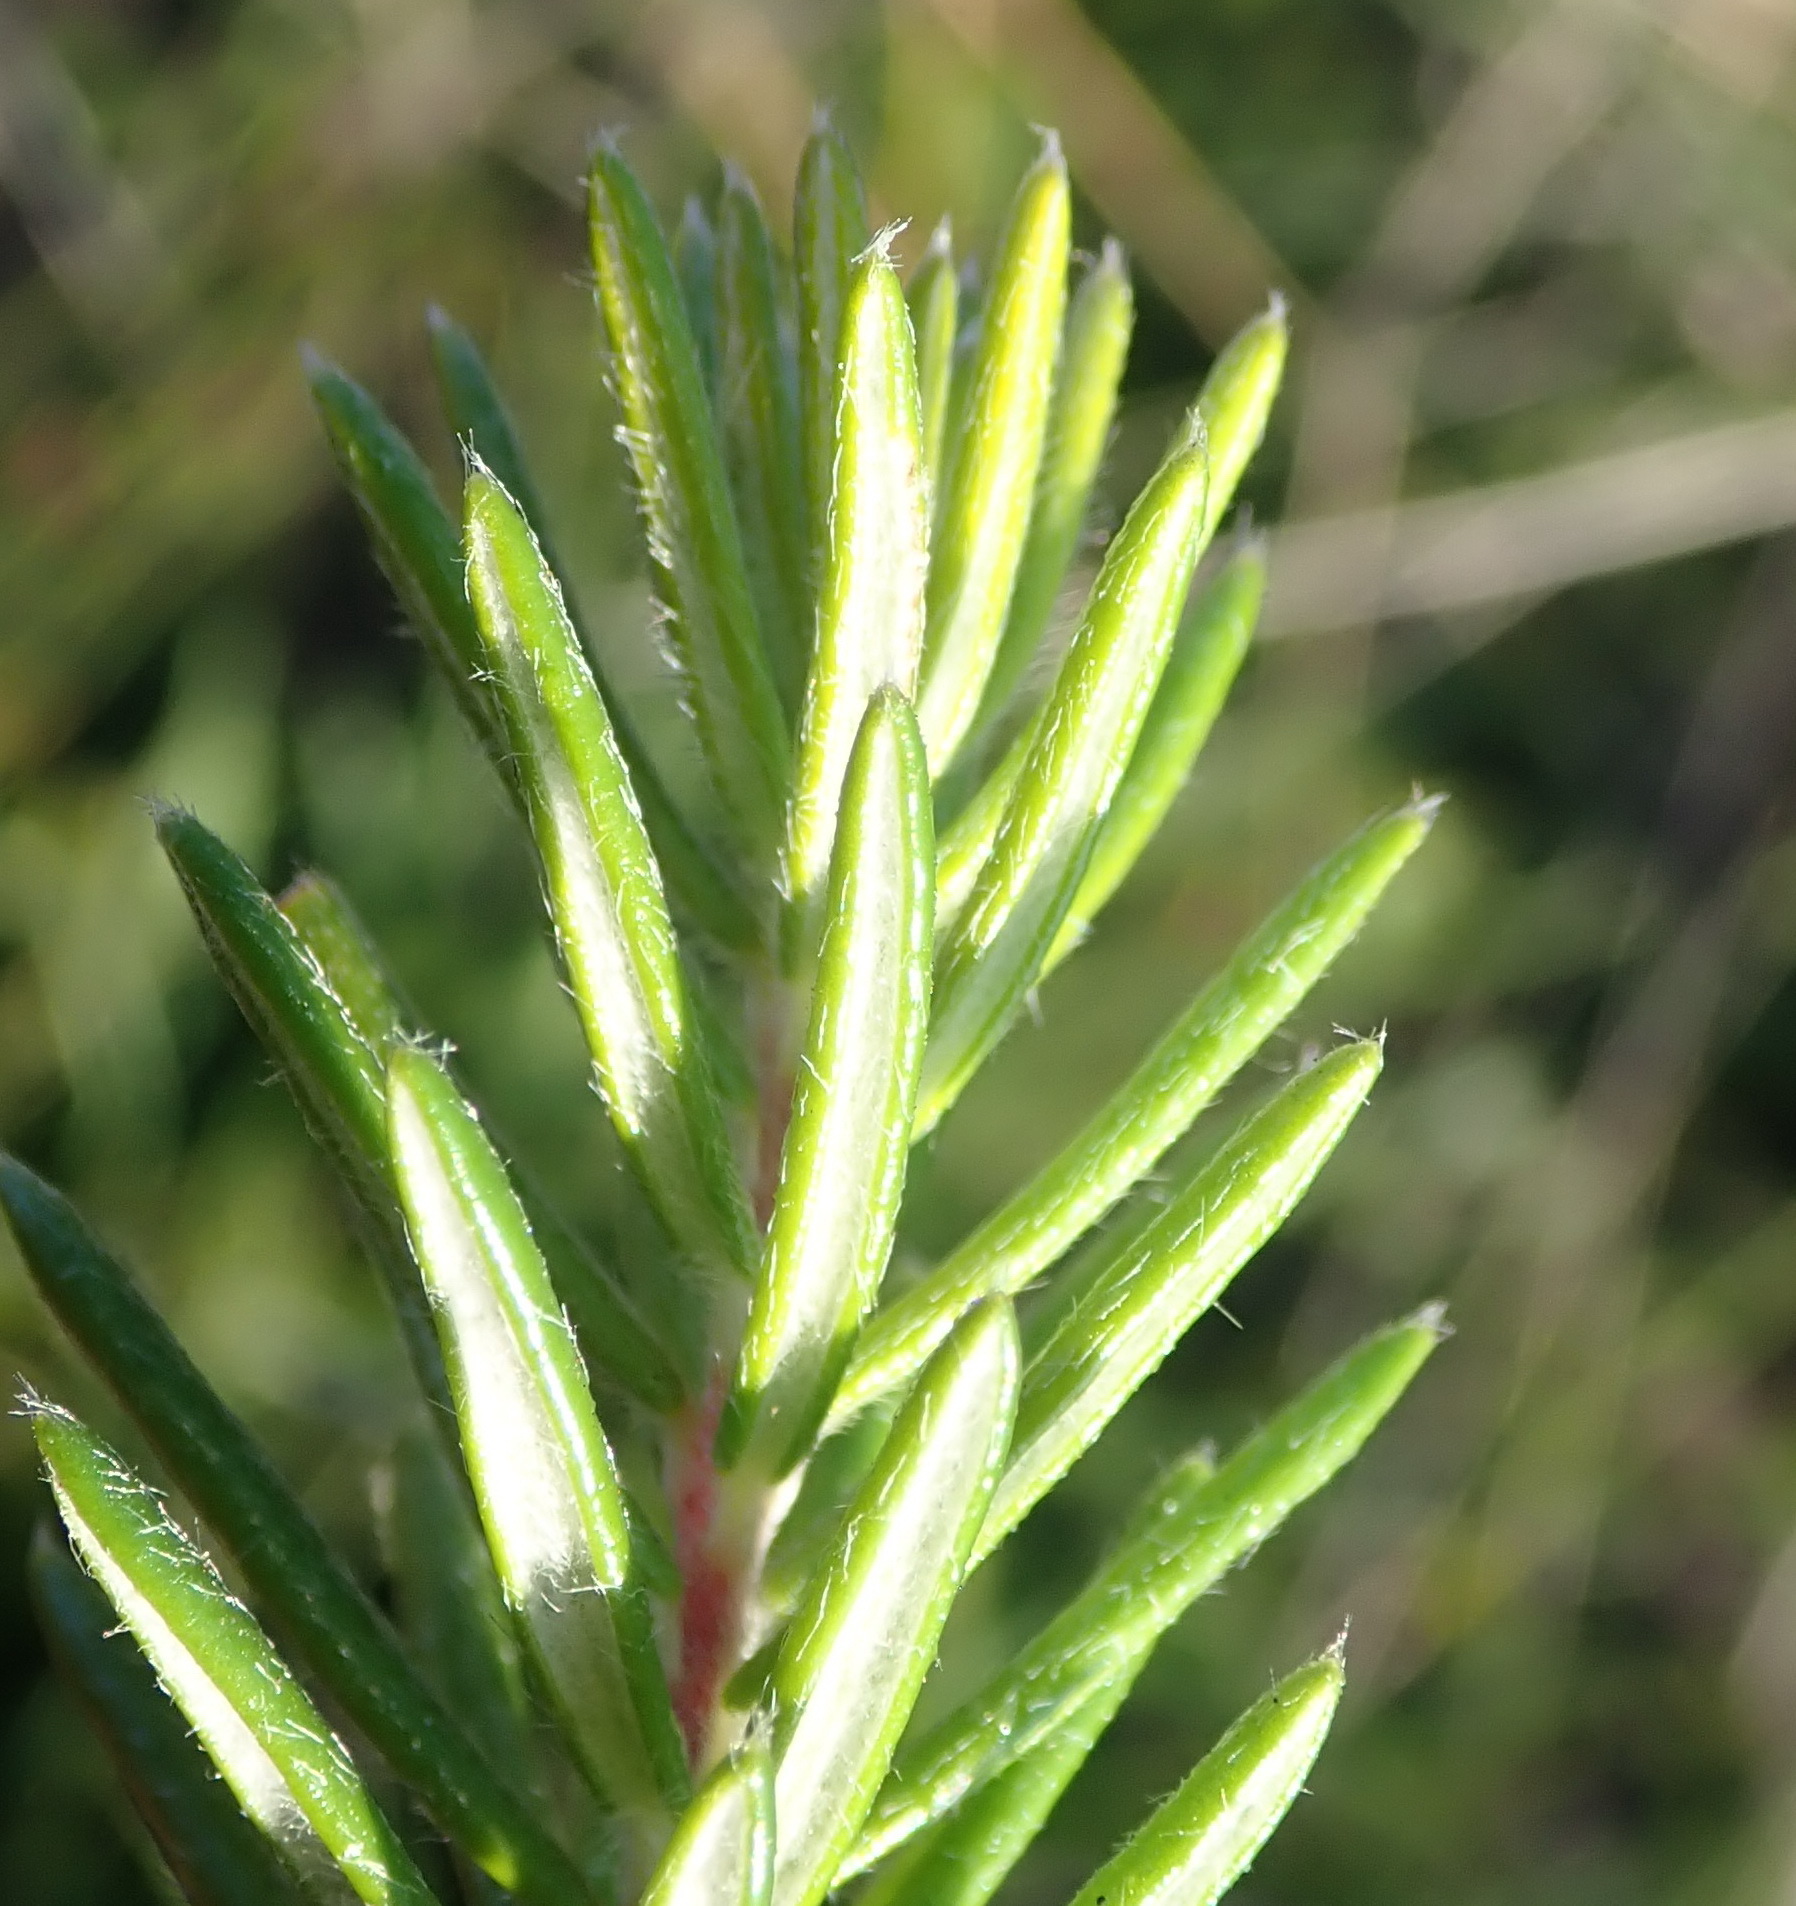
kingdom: Plantae
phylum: Tracheophyta
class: Magnoliopsida
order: Rosales
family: Rhamnaceae
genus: Phylica
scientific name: Phylica axillaris
